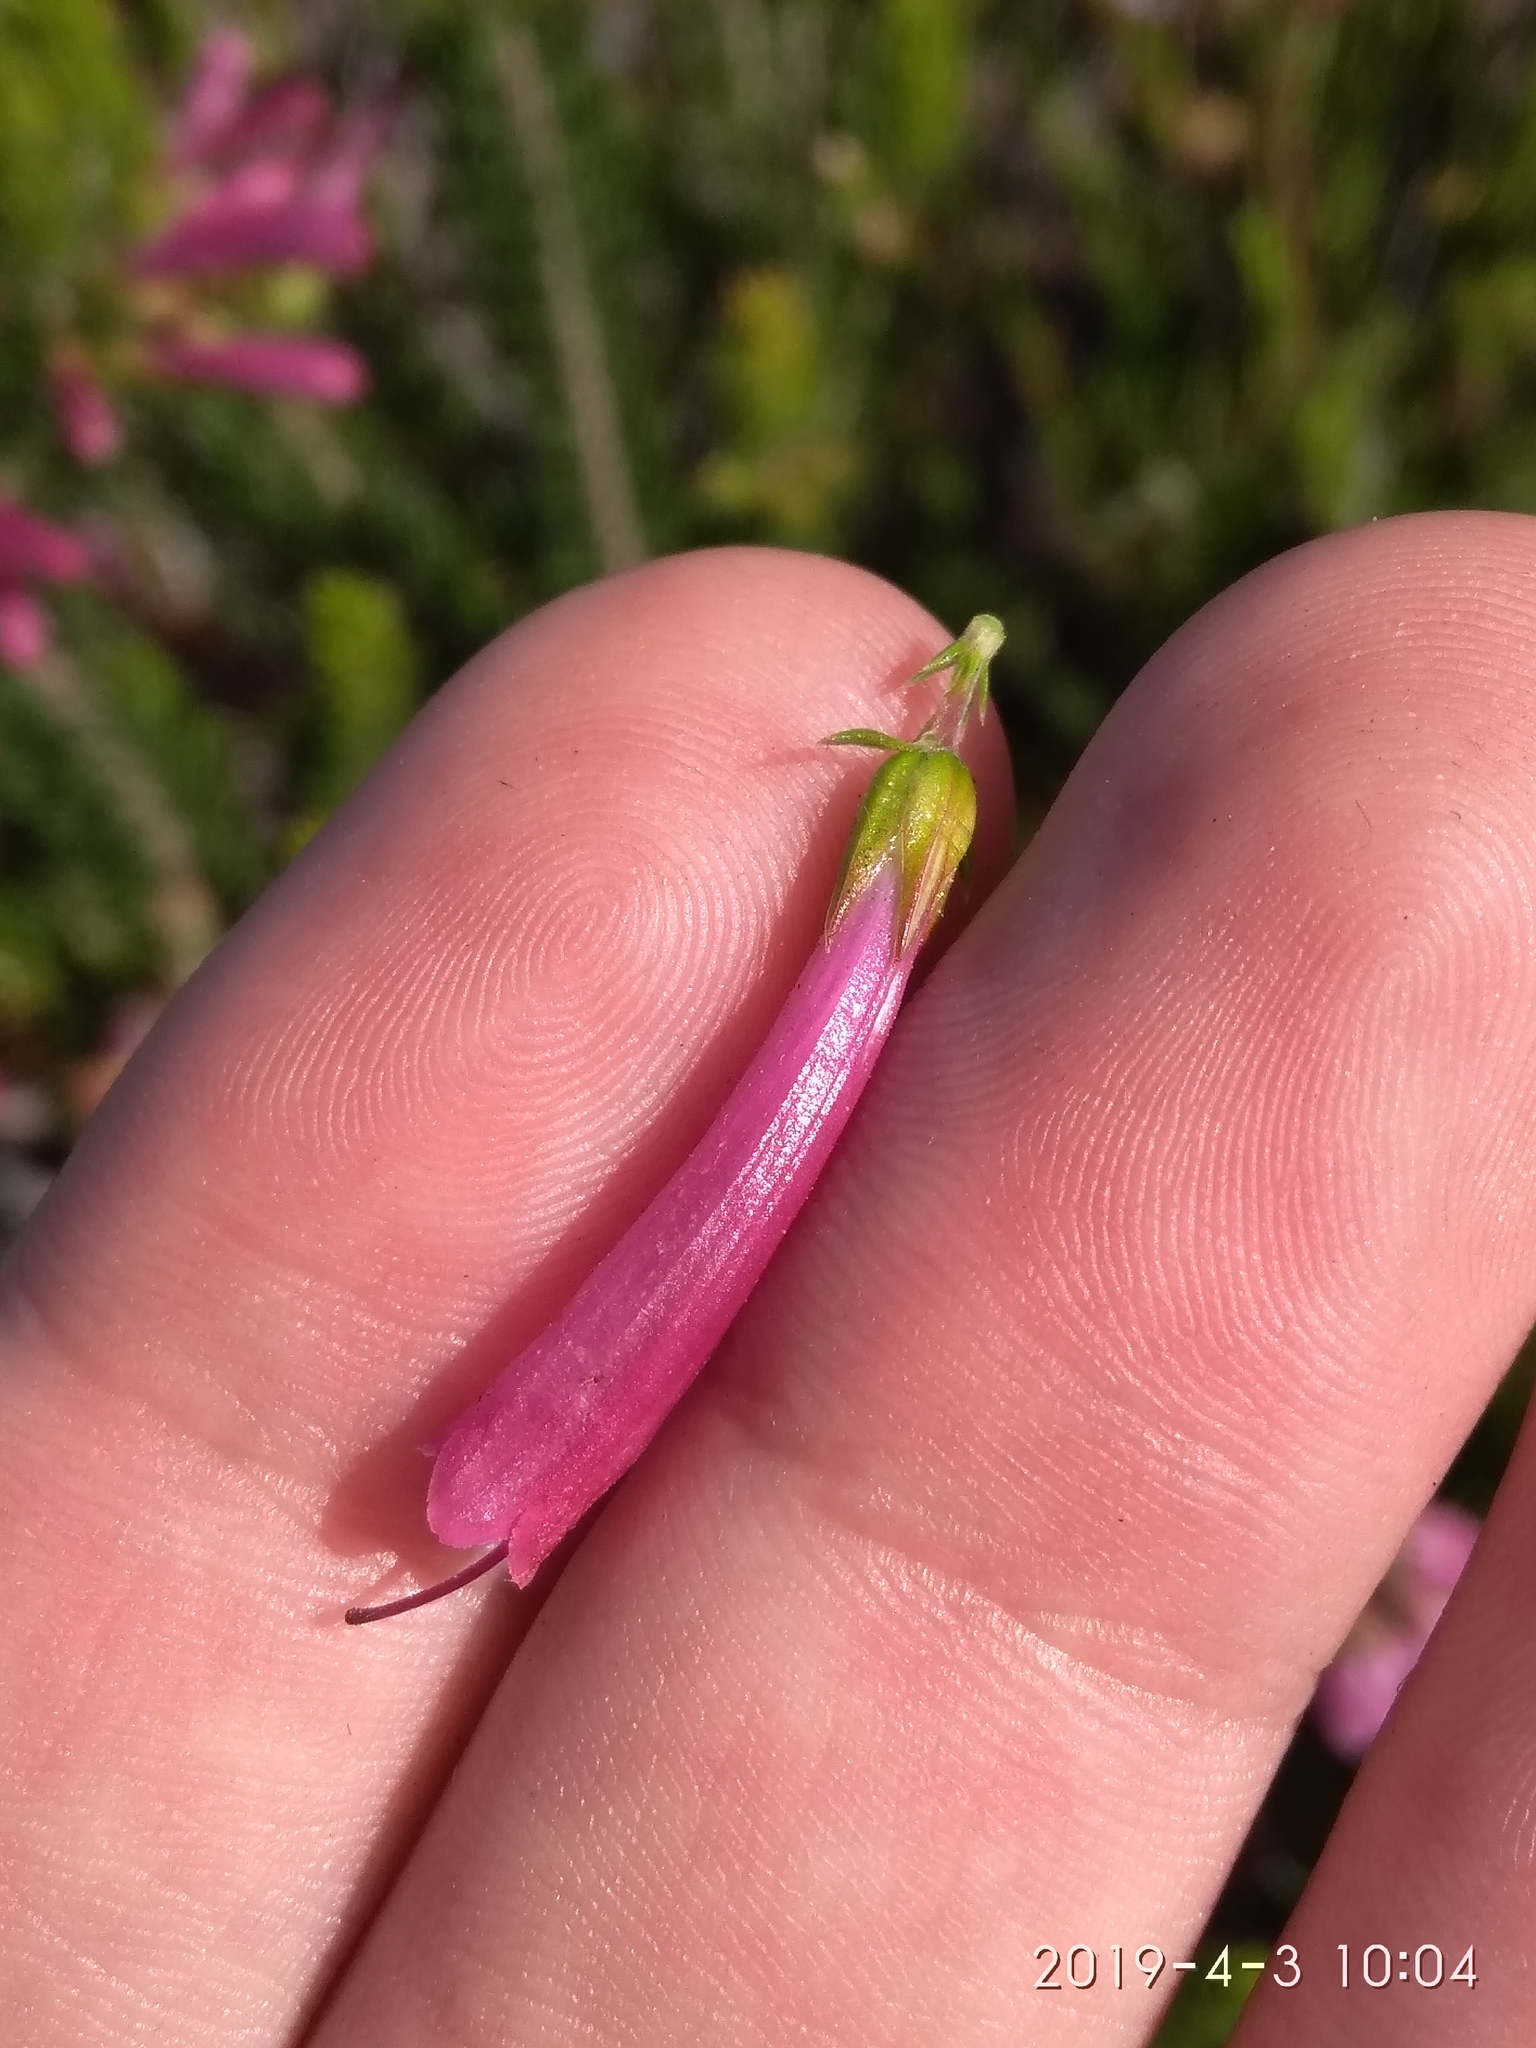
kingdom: Plantae
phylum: Tracheophyta
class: Magnoliopsida
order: Ericales
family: Ericaceae
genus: Erica
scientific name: Erica abietina
